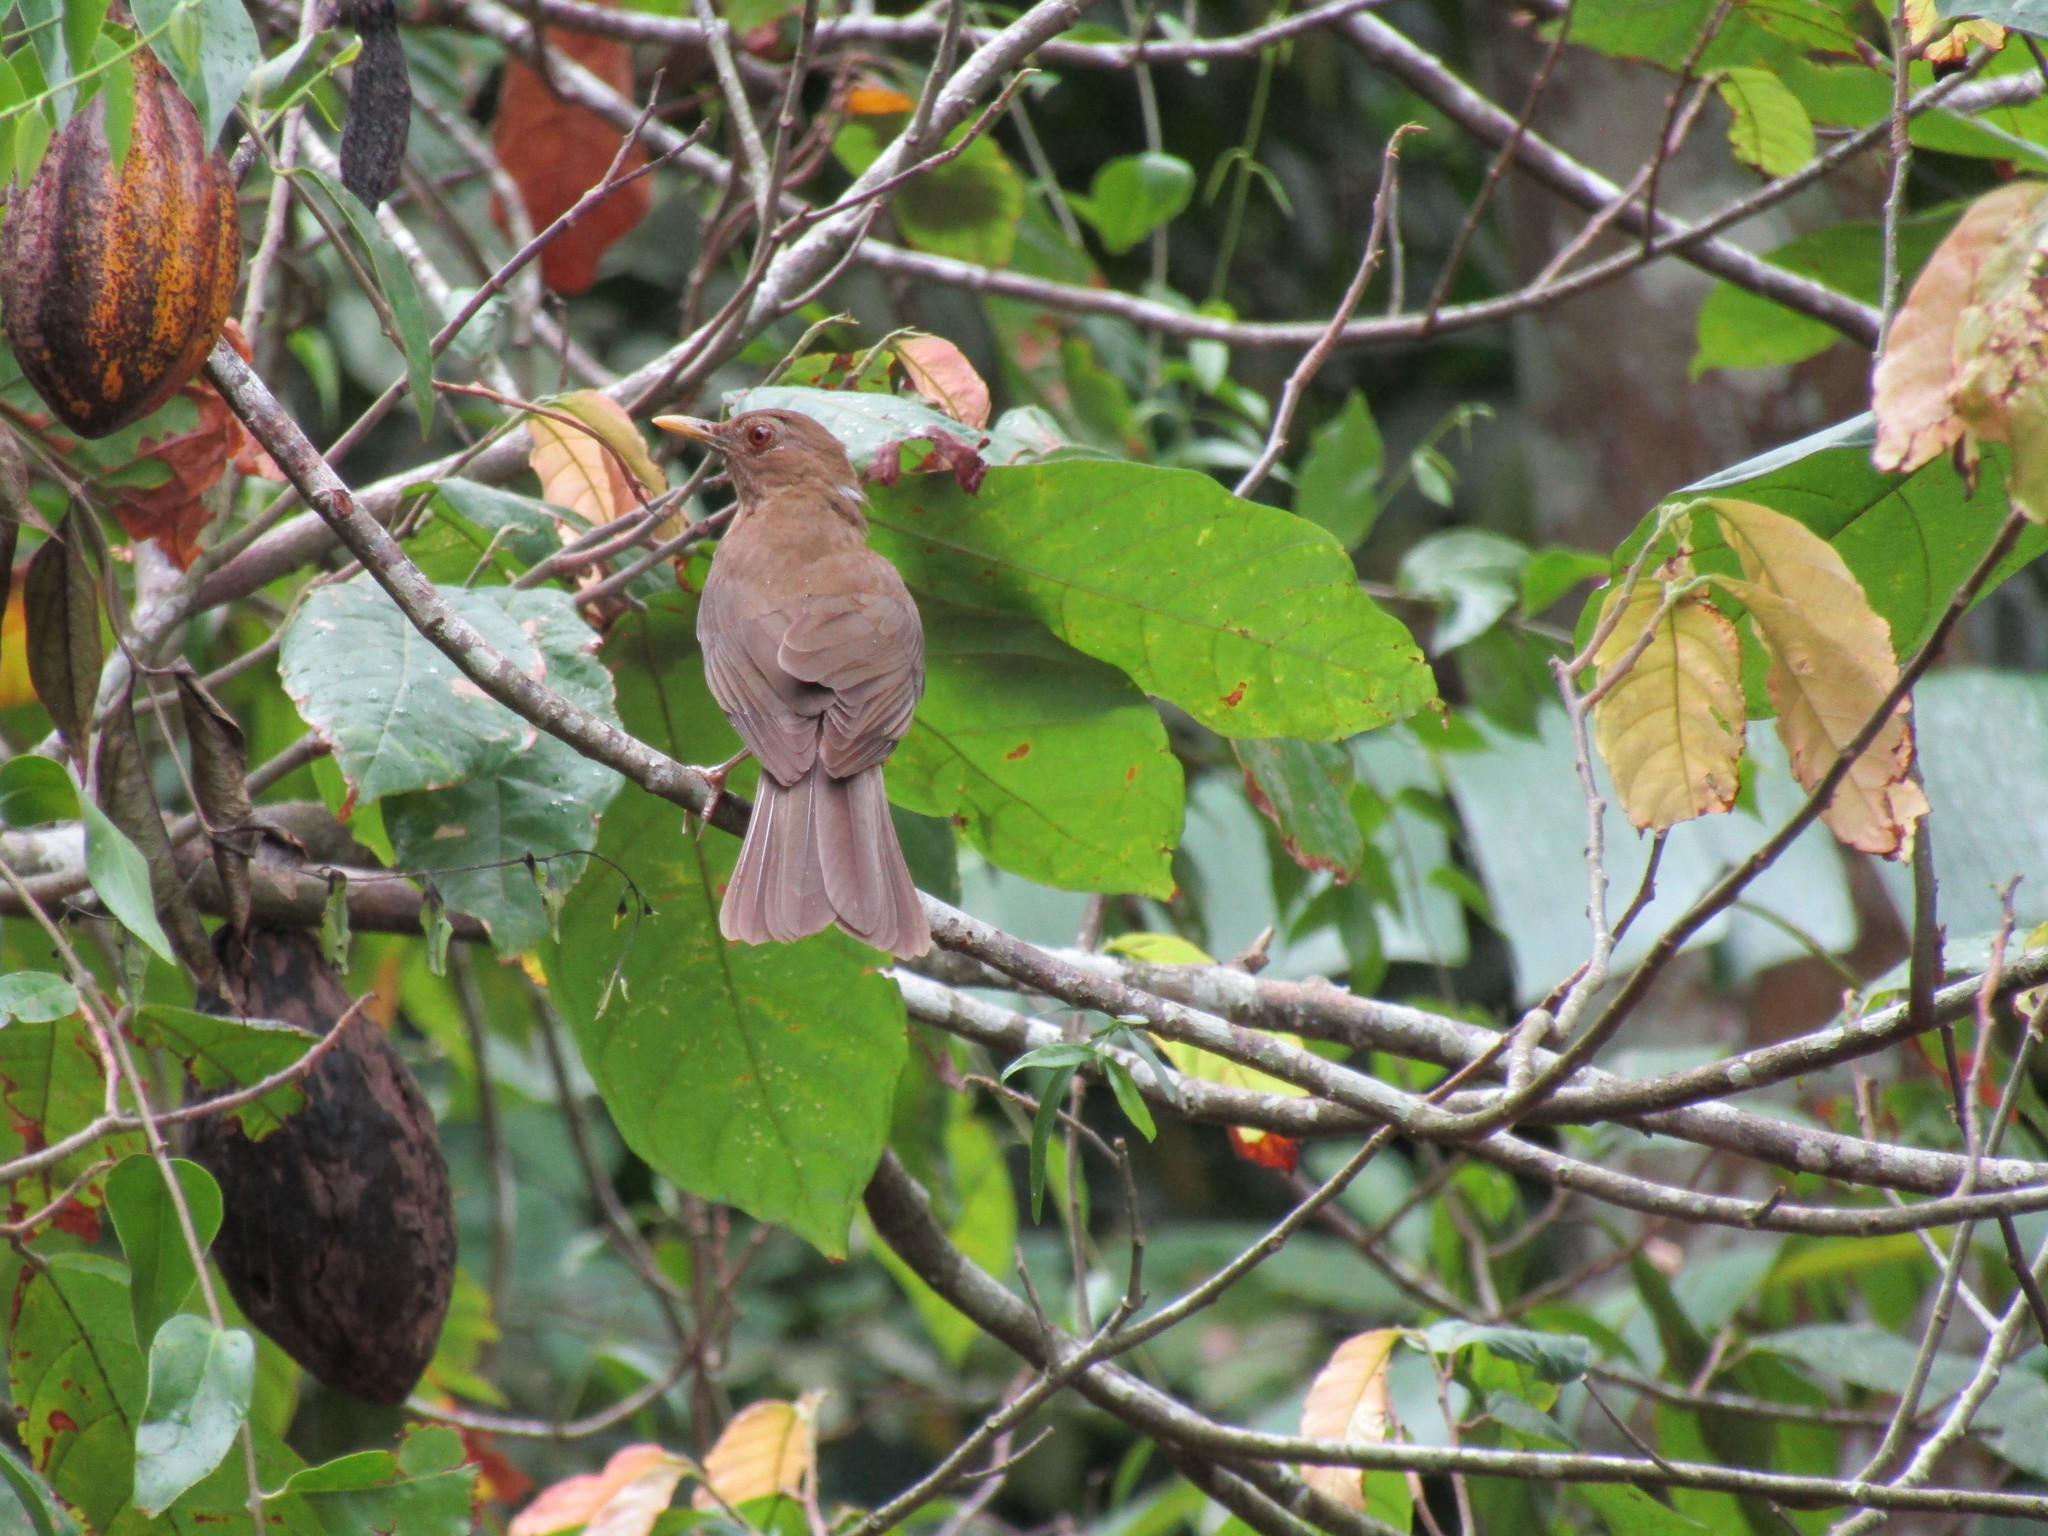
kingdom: Animalia
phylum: Chordata
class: Aves
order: Passeriformes
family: Turdidae
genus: Turdus
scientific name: Turdus grayi
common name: Clay-colored thrush
